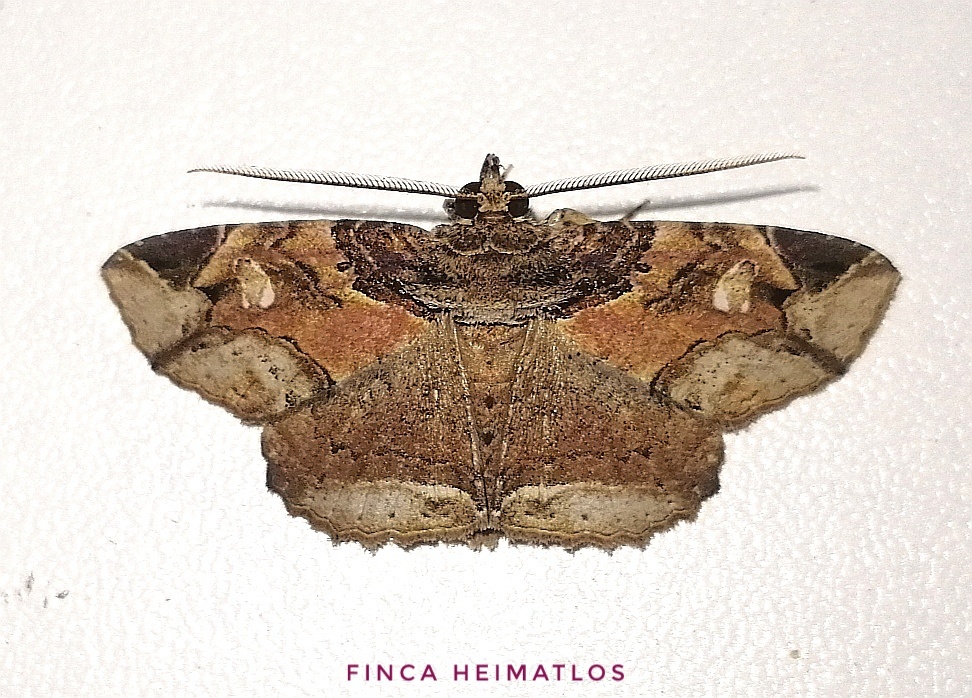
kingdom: Animalia
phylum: Arthropoda
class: Insecta
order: Lepidoptera
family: Erebidae
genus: Peteroma
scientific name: Peteroma denticulata
